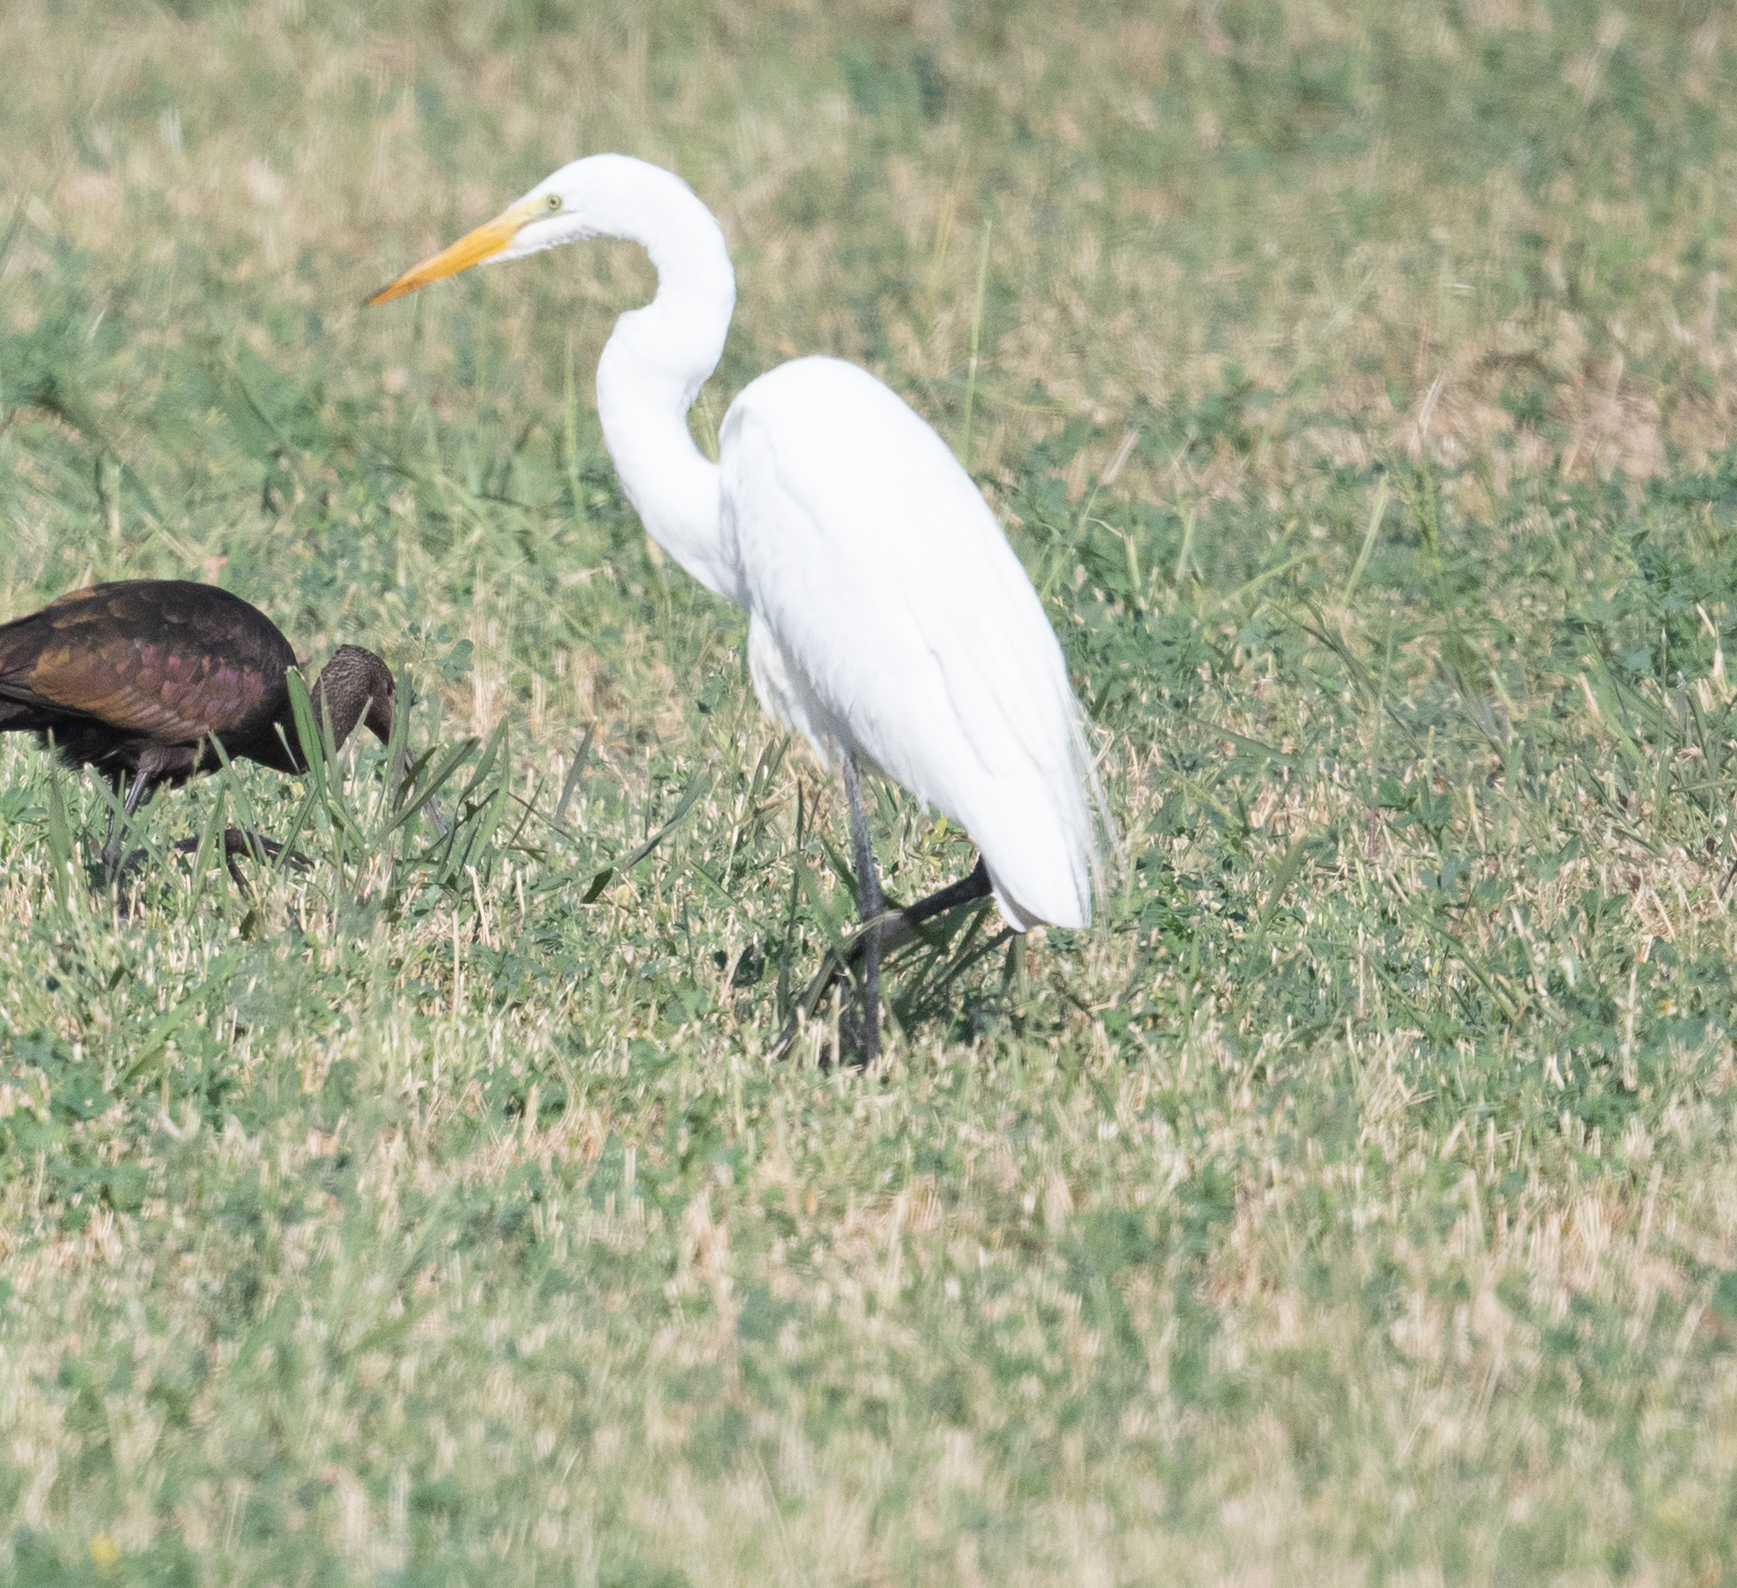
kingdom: Animalia
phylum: Chordata
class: Aves
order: Pelecaniformes
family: Ardeidae
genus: Ardea
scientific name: Ardea alba
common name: Great egret
